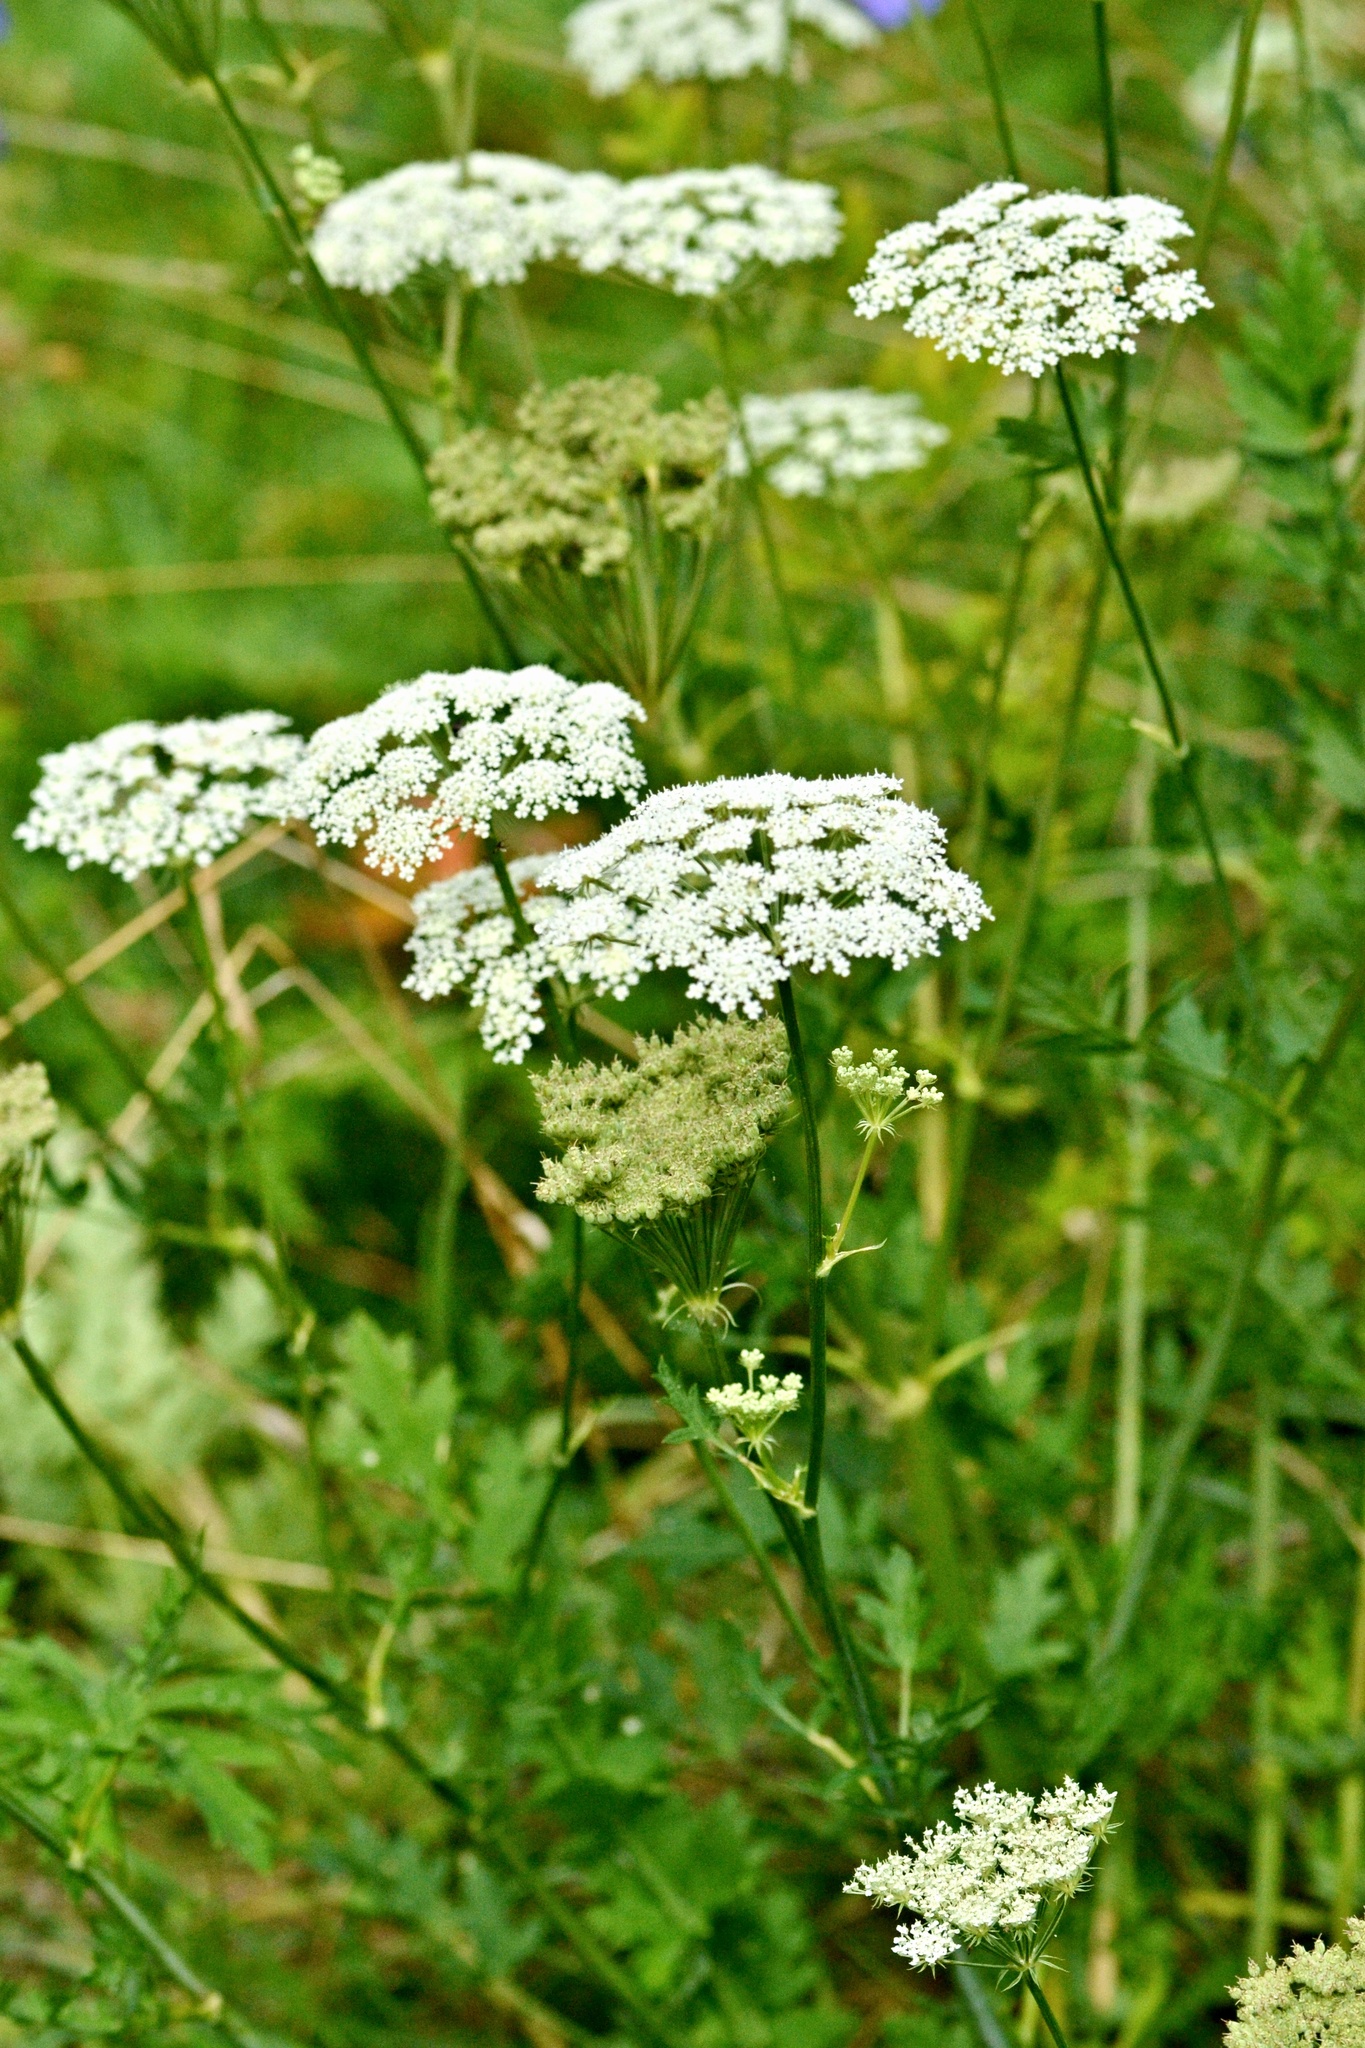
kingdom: Plantae
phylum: Tracheophyta
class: Magnoliopsida
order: Apiales
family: Apiaceae
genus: Seseli
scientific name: Seseli libanotis
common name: Mooncarrot
